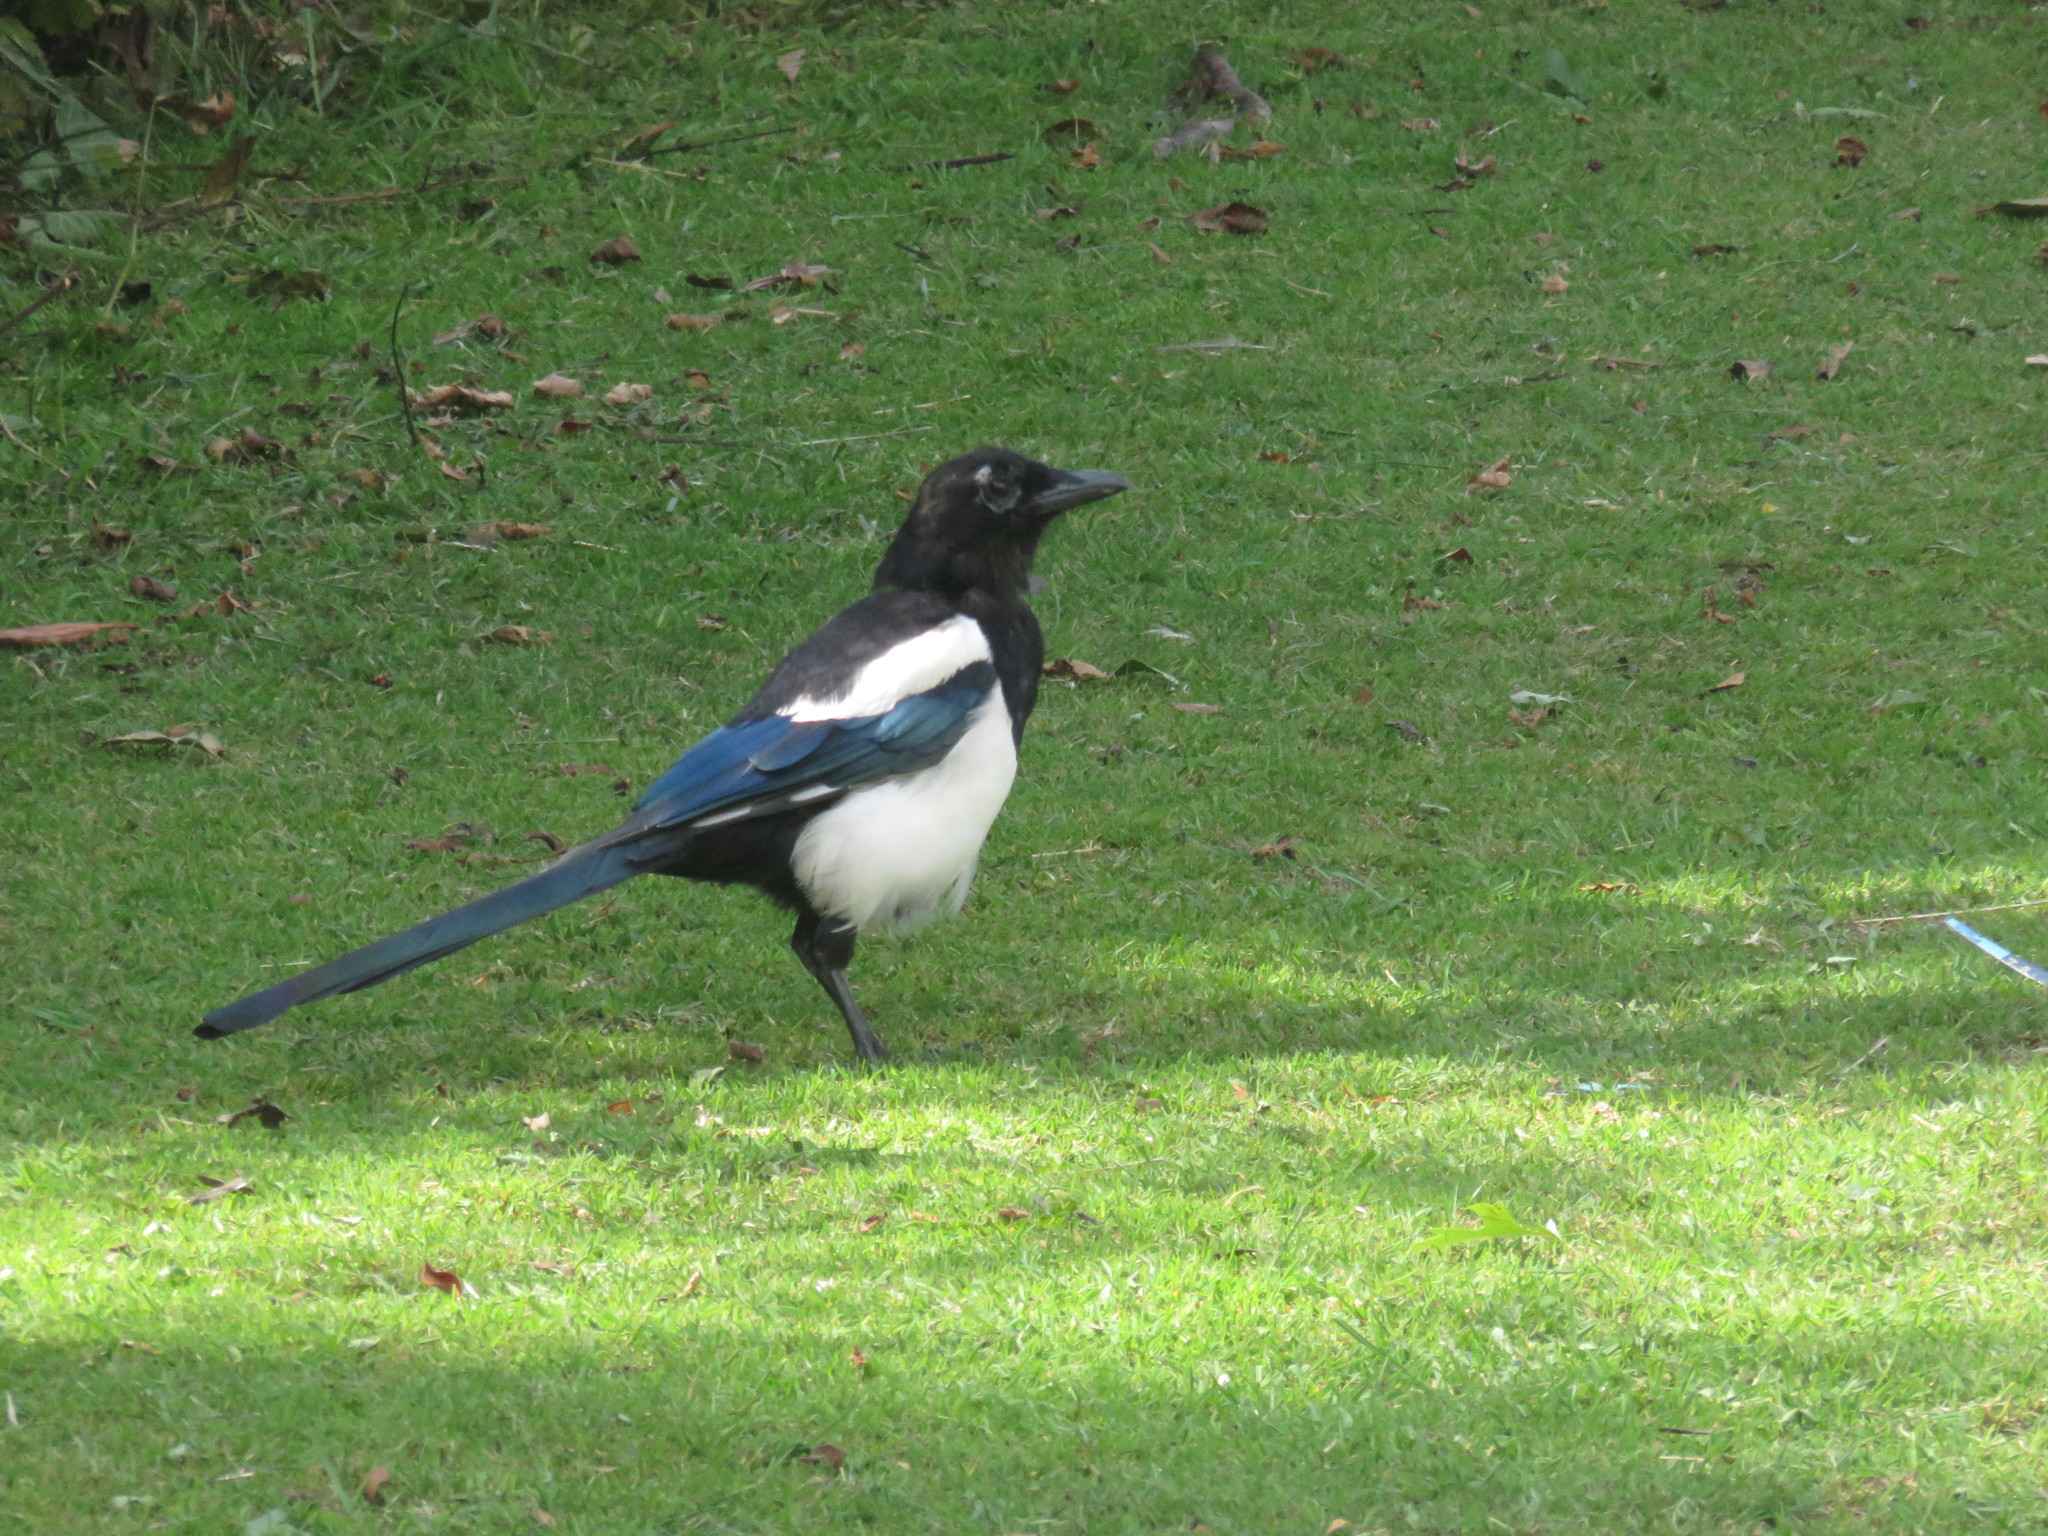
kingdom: Animalia
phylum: Chordata
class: Aves
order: Passeriformes
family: Corvidae
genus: Pica
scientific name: Pica pica
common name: Eurasian magpie
